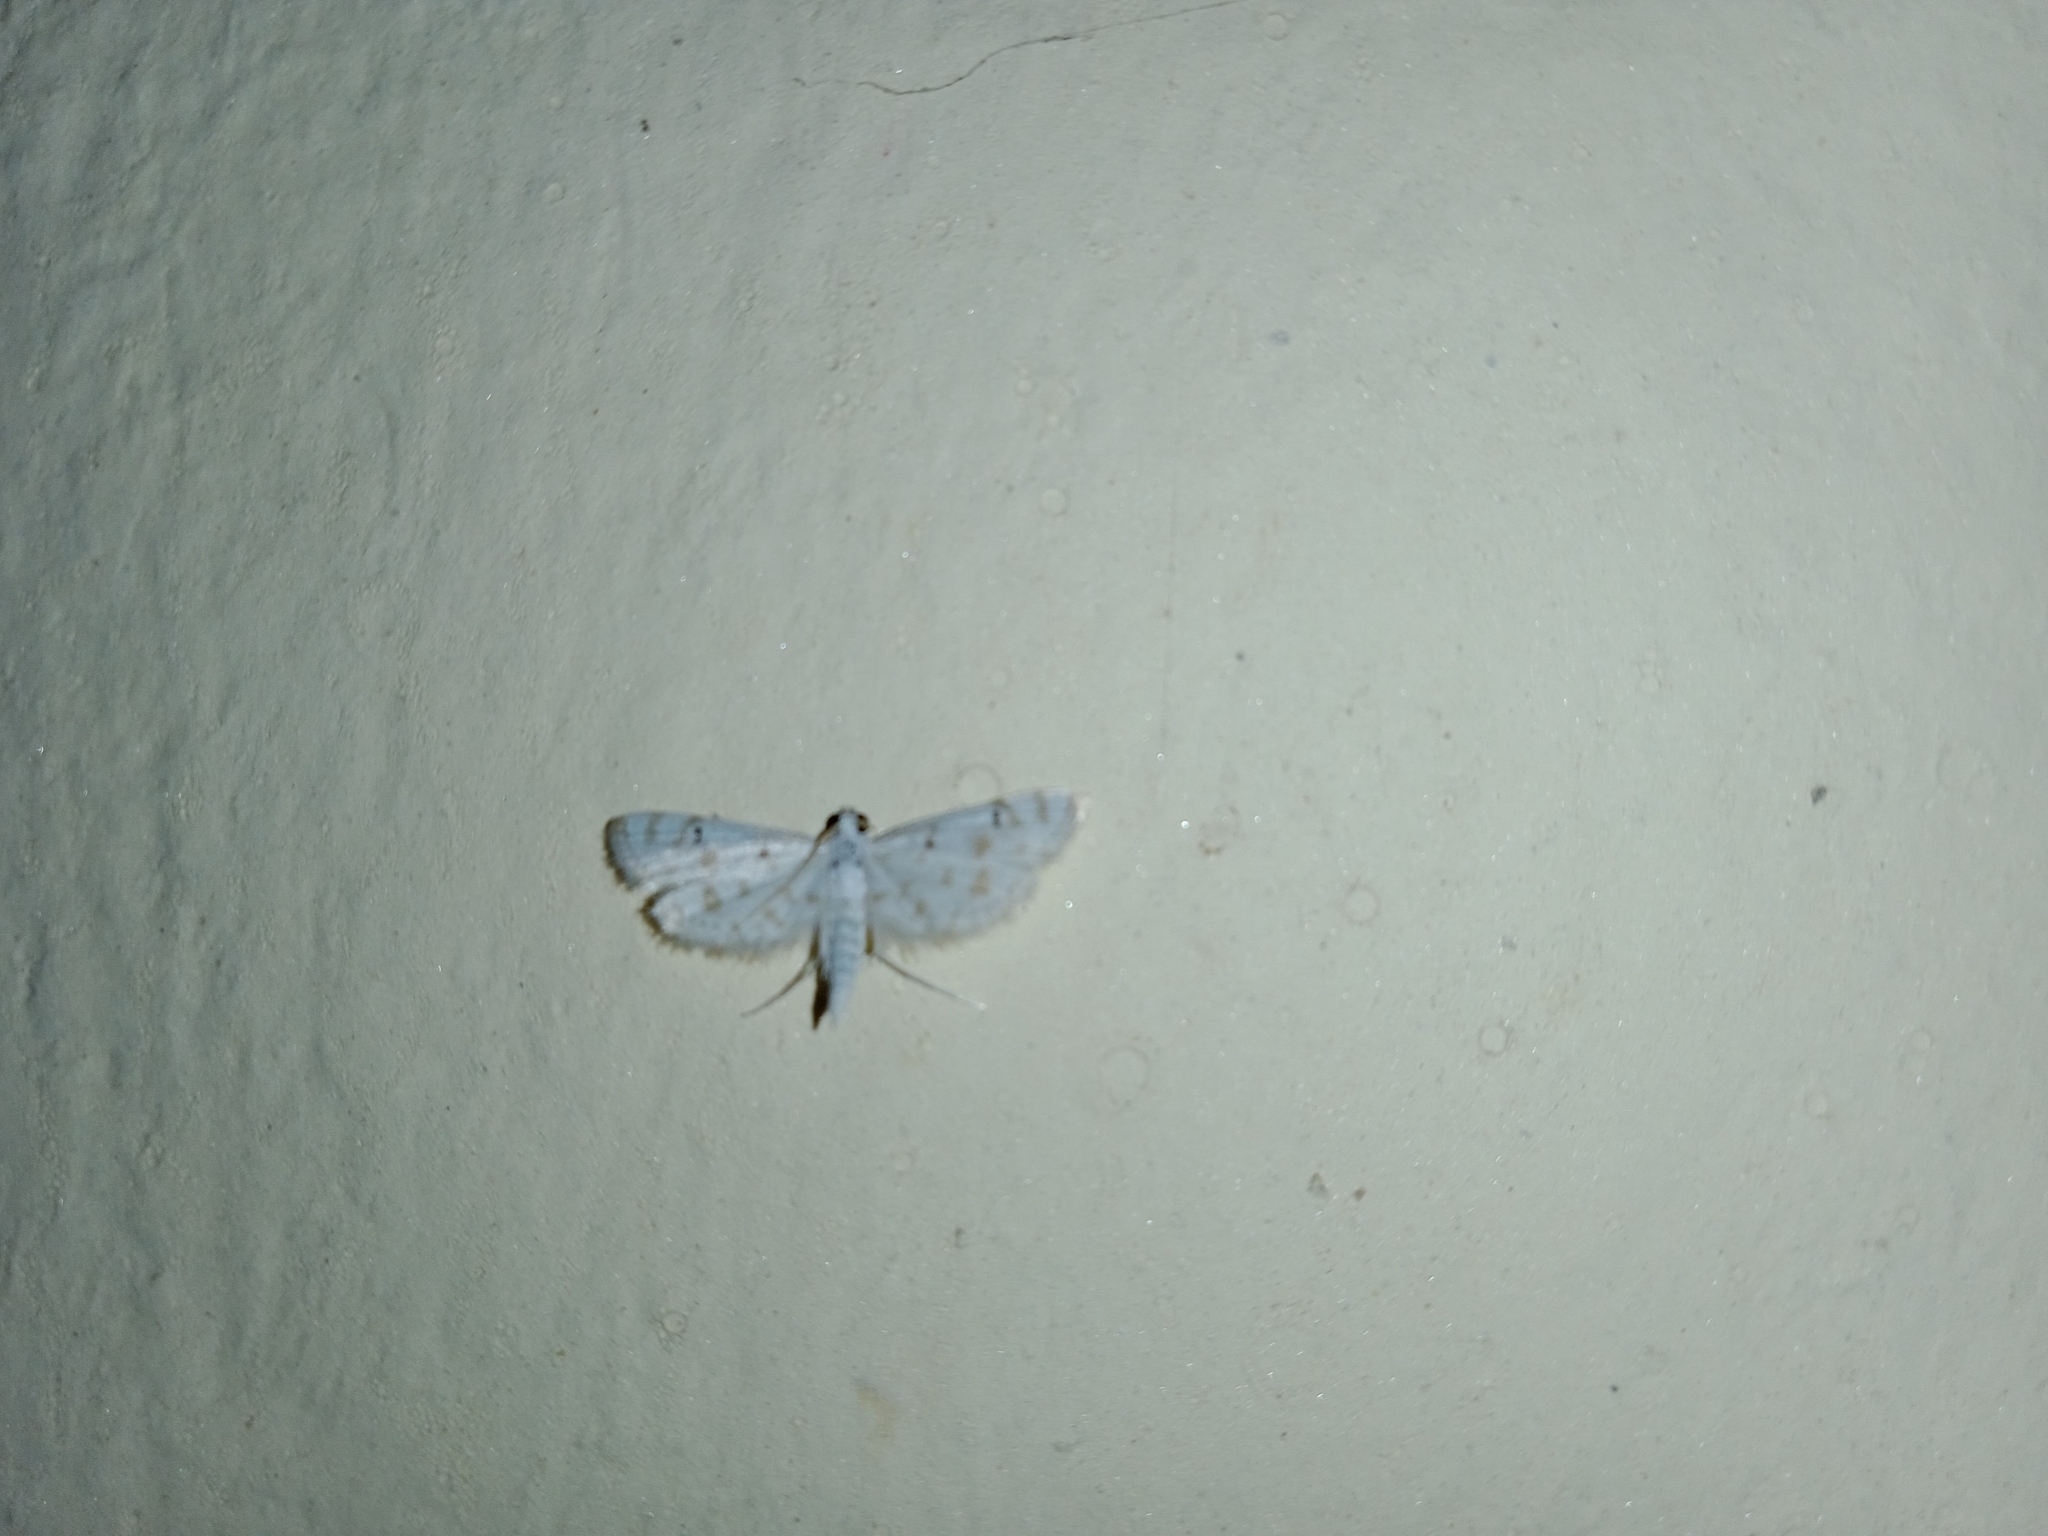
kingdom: Animalia
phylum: Arthropoda
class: Insecta
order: Lepidoptera
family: Crambidae
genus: Parapoynx
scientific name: Parapoynx stagnalis
